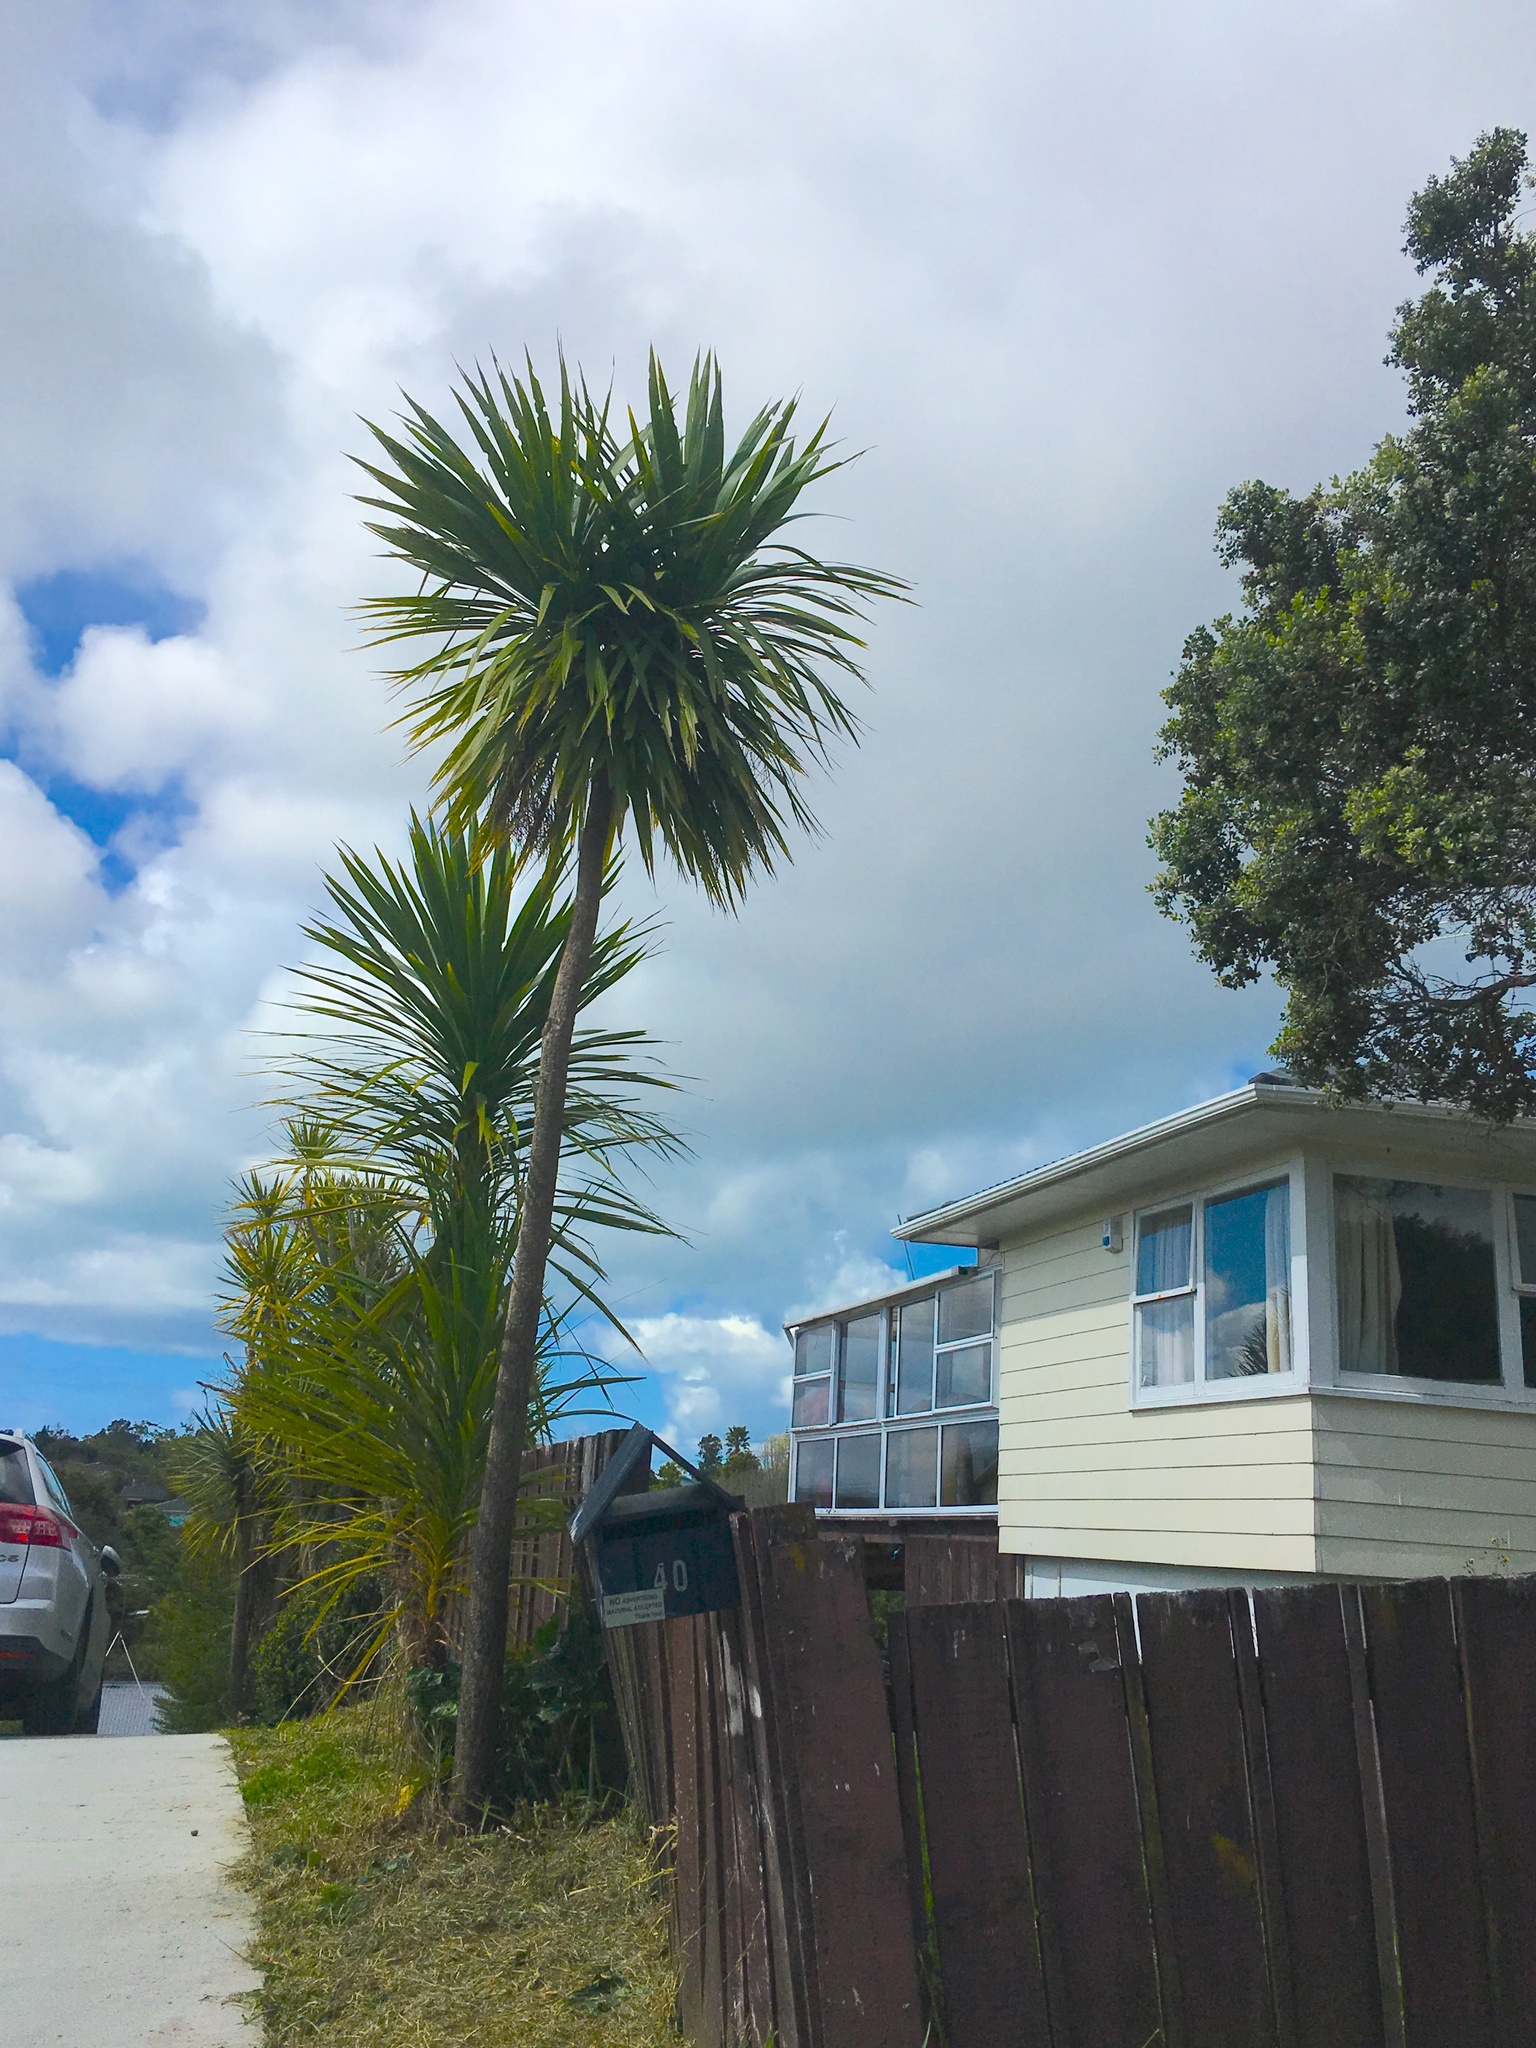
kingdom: Plantae
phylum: Tracheophyta
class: Liliopsida
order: Asparagales
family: Asparagaceae
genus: Cordyline
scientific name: Cordyline australis
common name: Cabbage-palm
